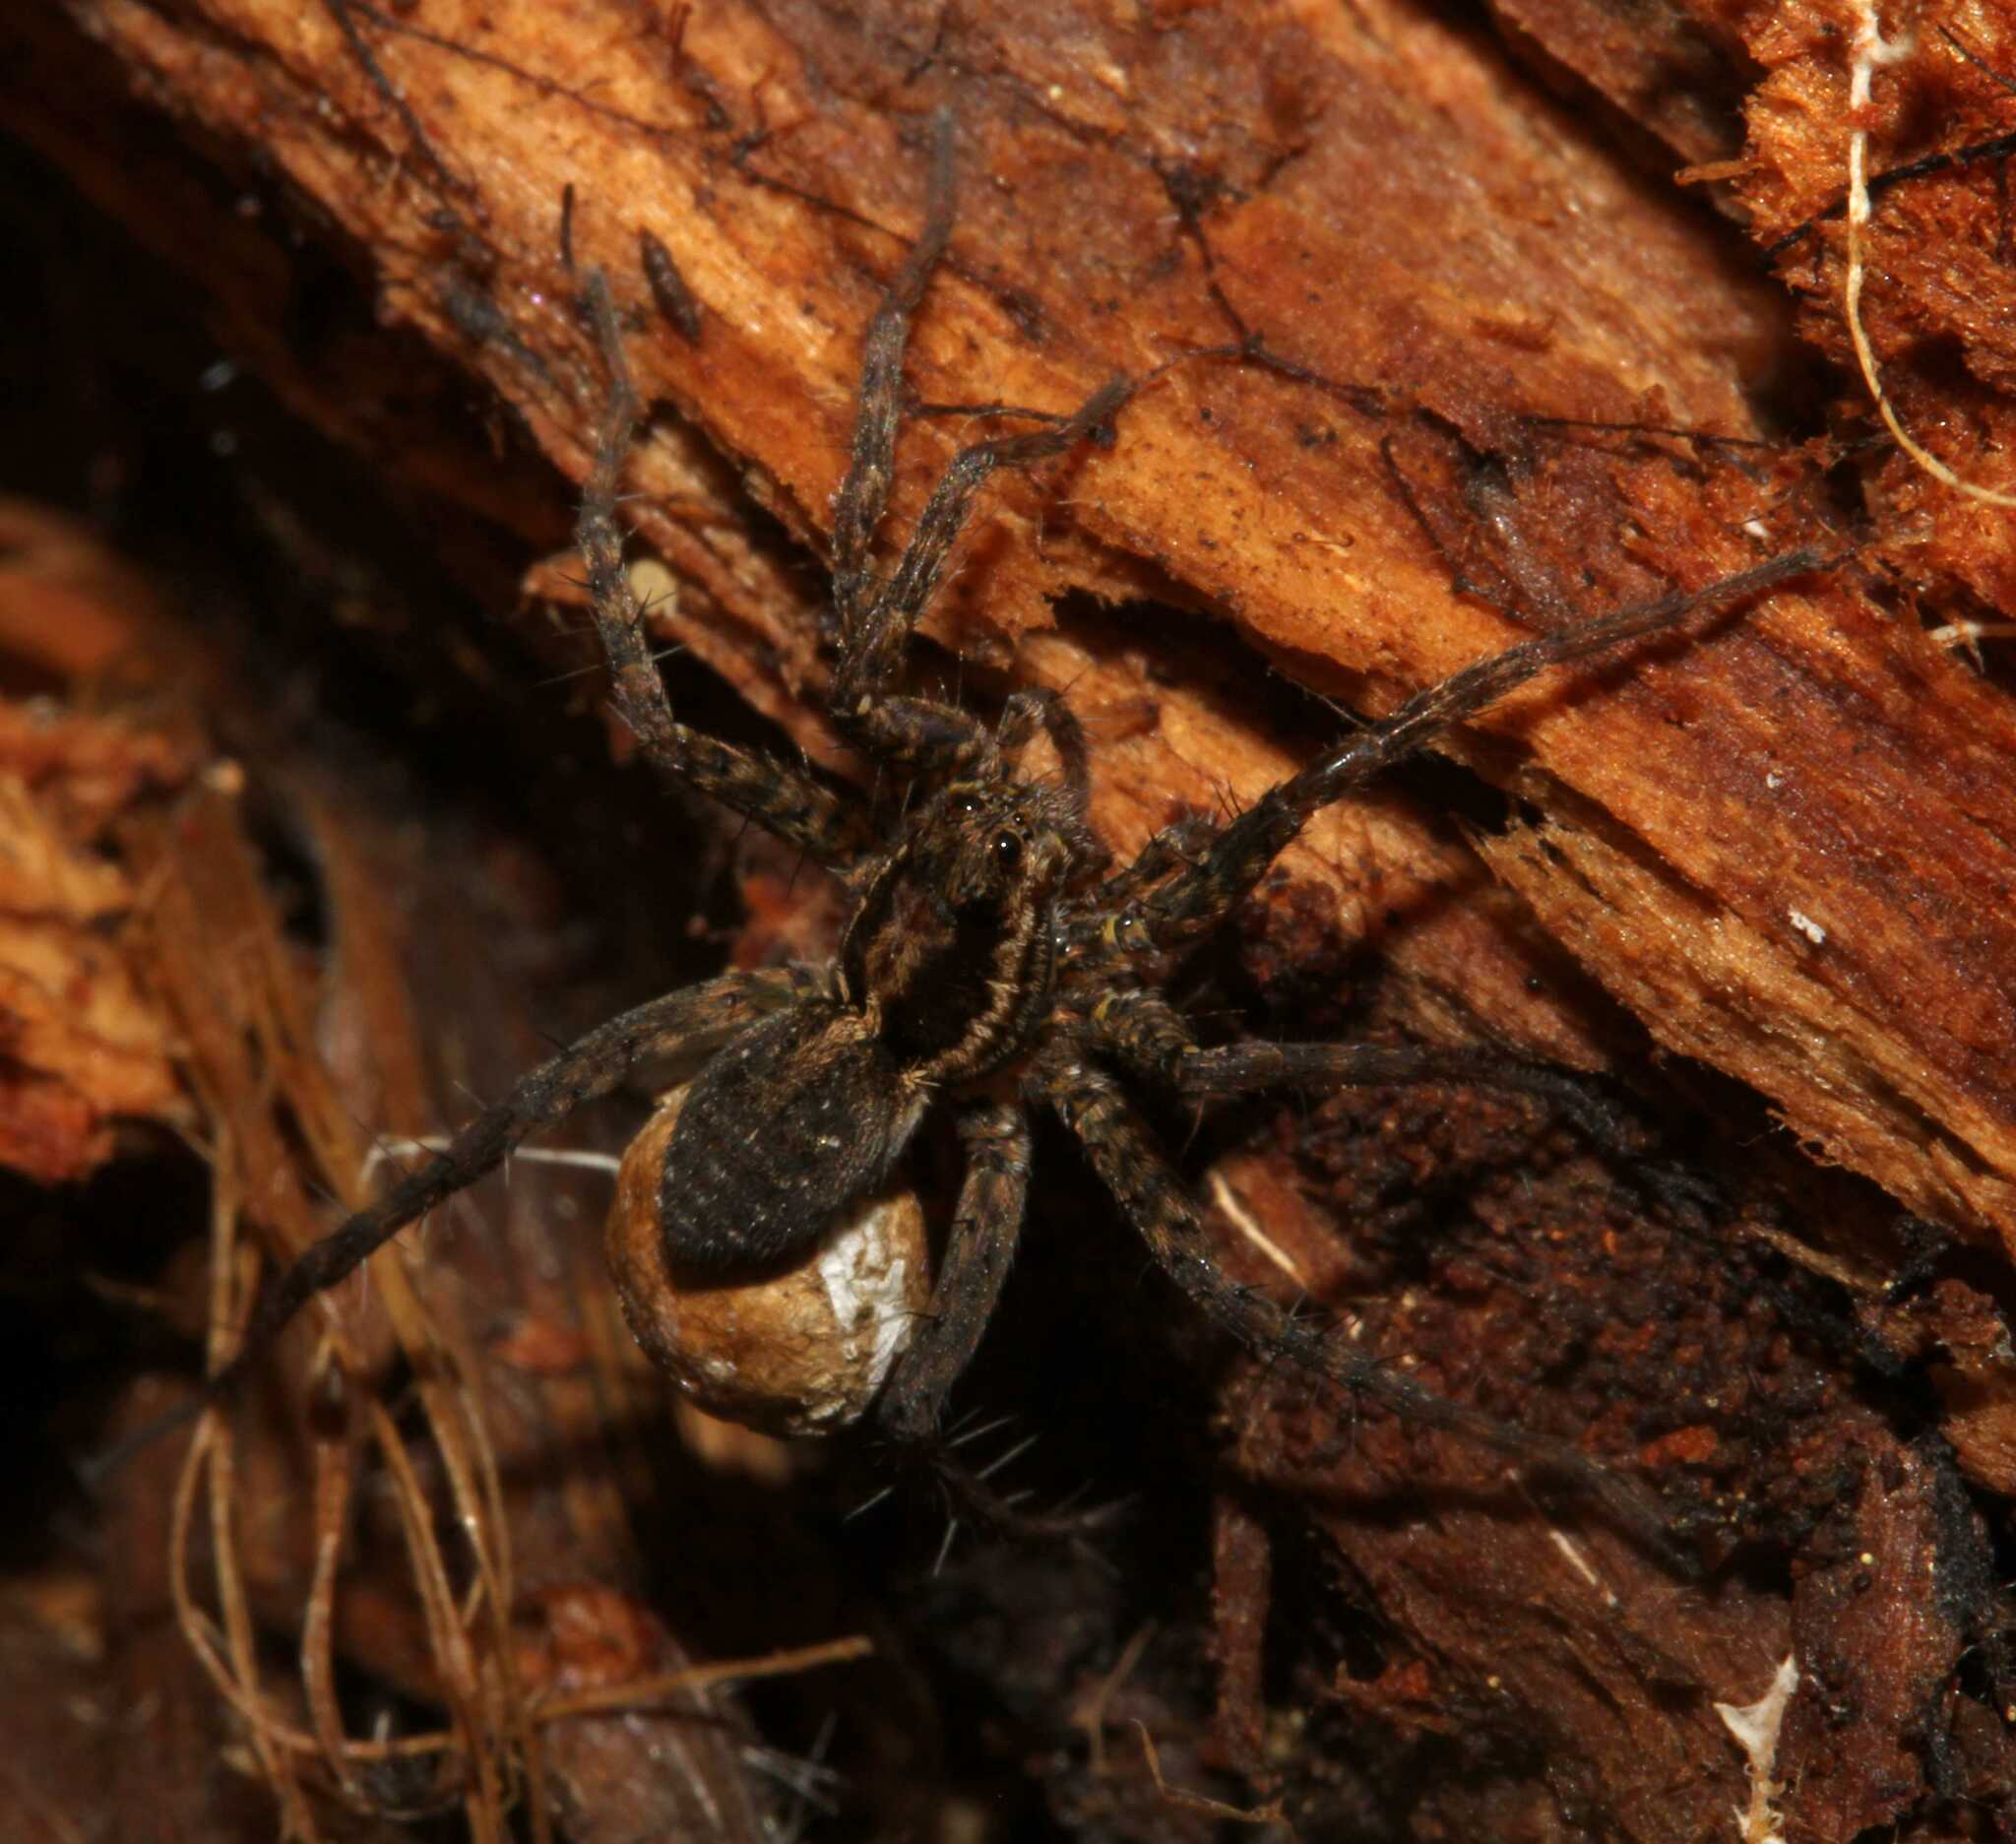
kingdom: Animalia
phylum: Arthropoda
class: Arachnida
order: Araneae
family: Lycosidae
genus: Pardosa
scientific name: Pardosa
